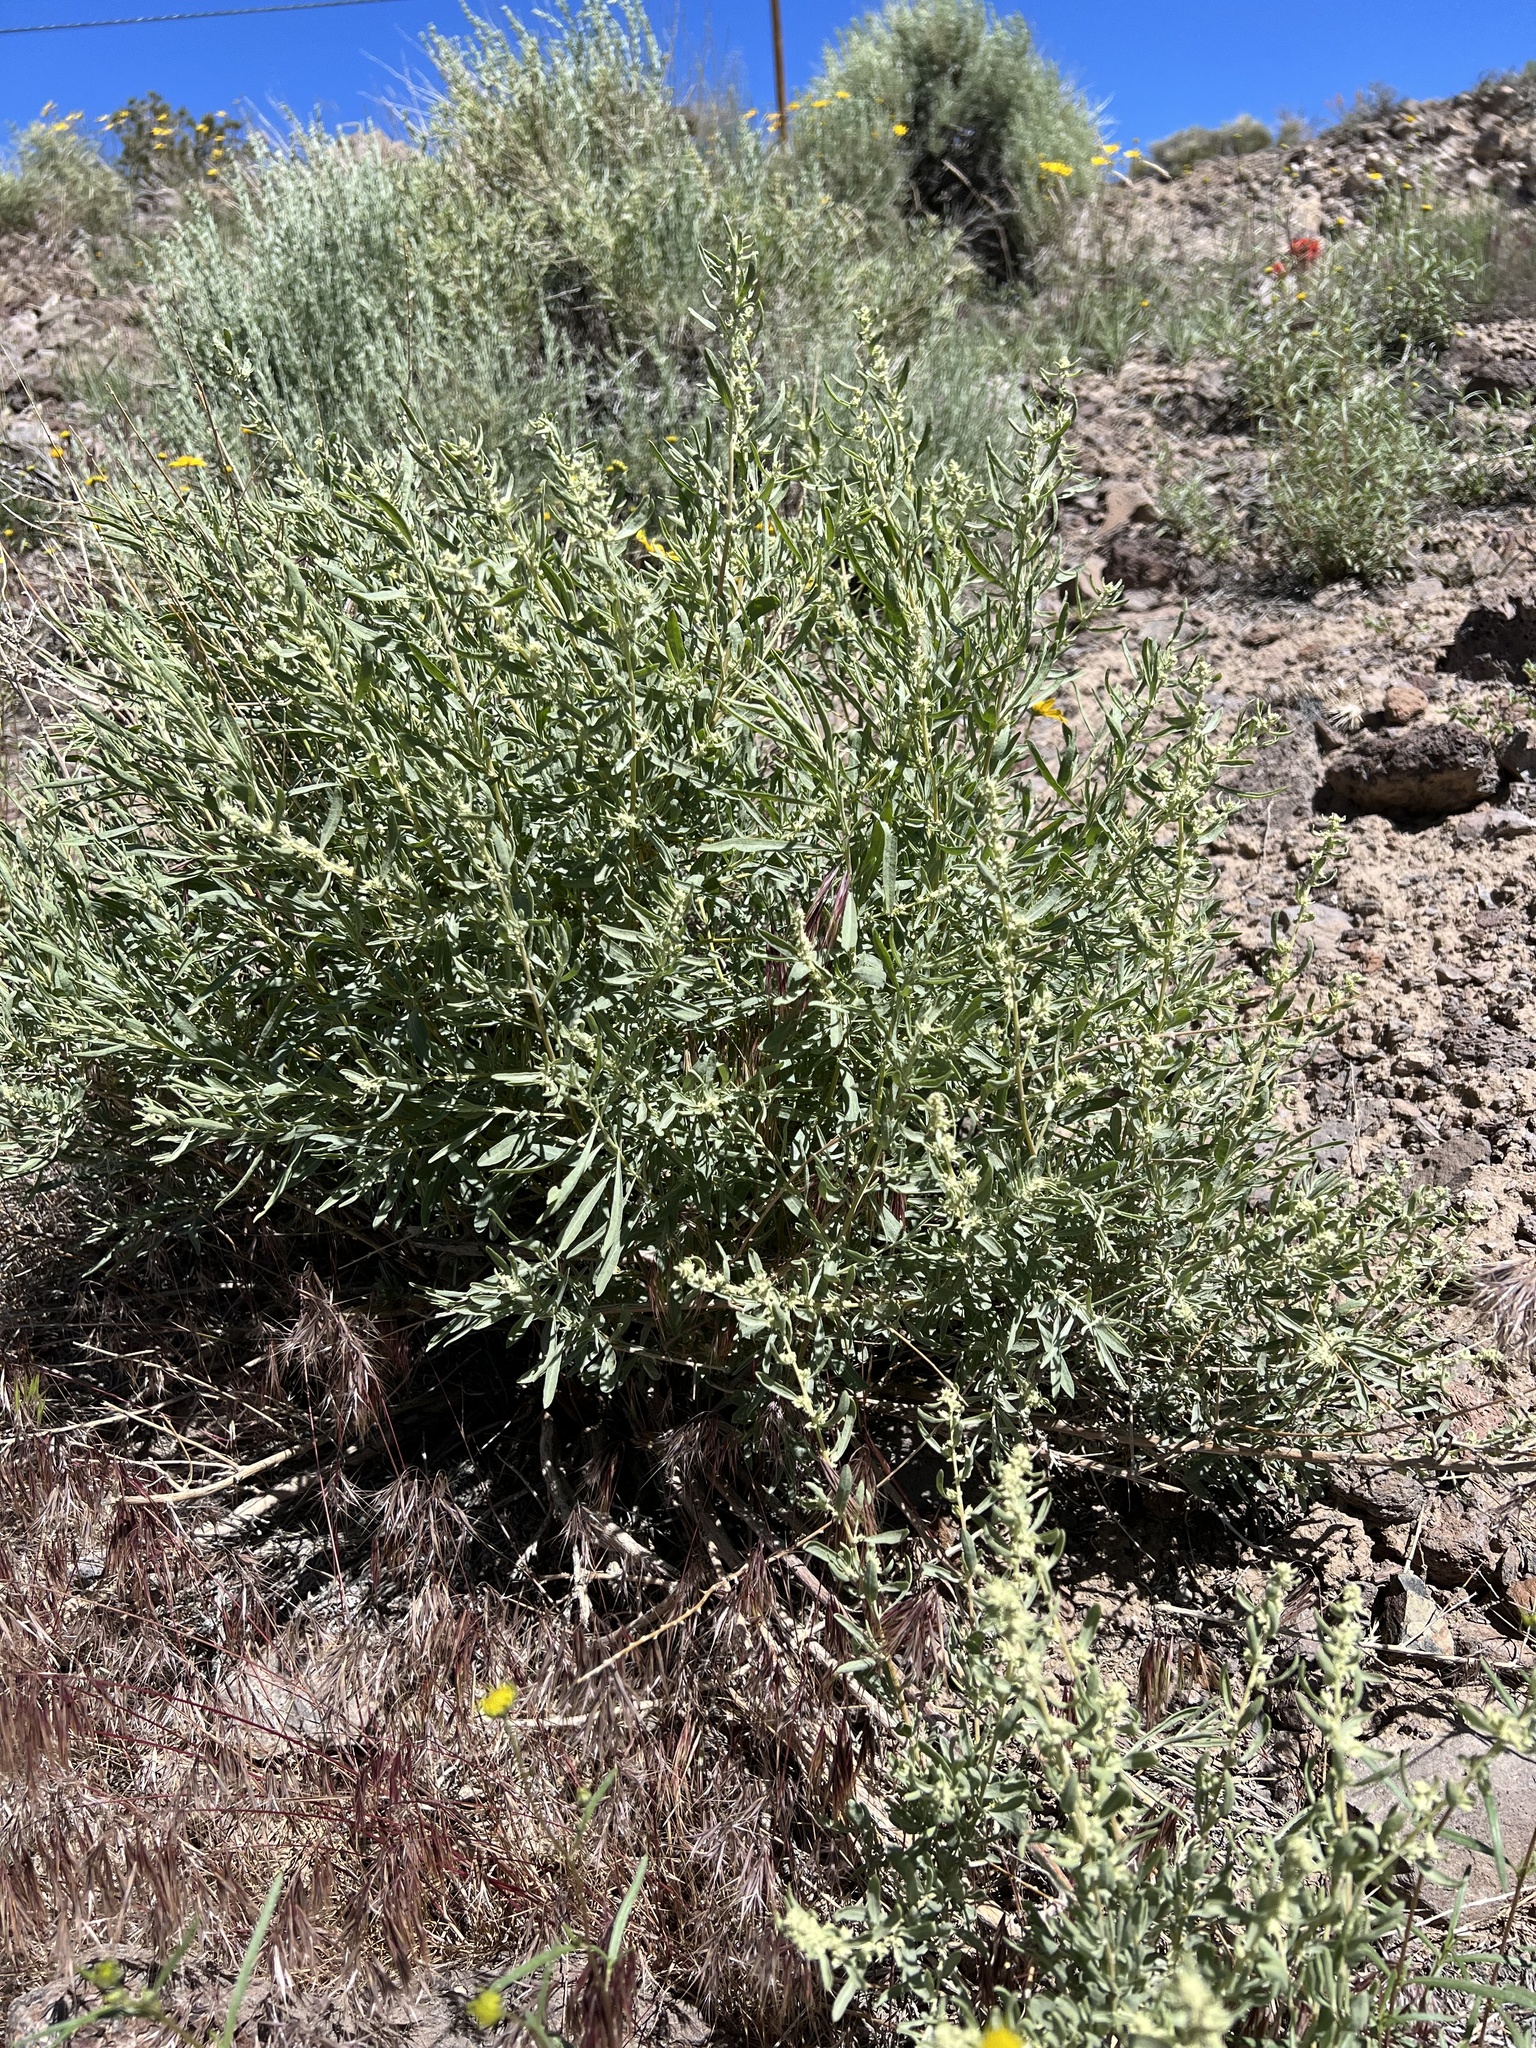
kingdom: Plantae
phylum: Tracheophyta
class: Magnoliopsida
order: Caryophyllales
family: Amaranthaceae
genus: Atriplex
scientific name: Atriplex canescens
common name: Four-wing saltbush
